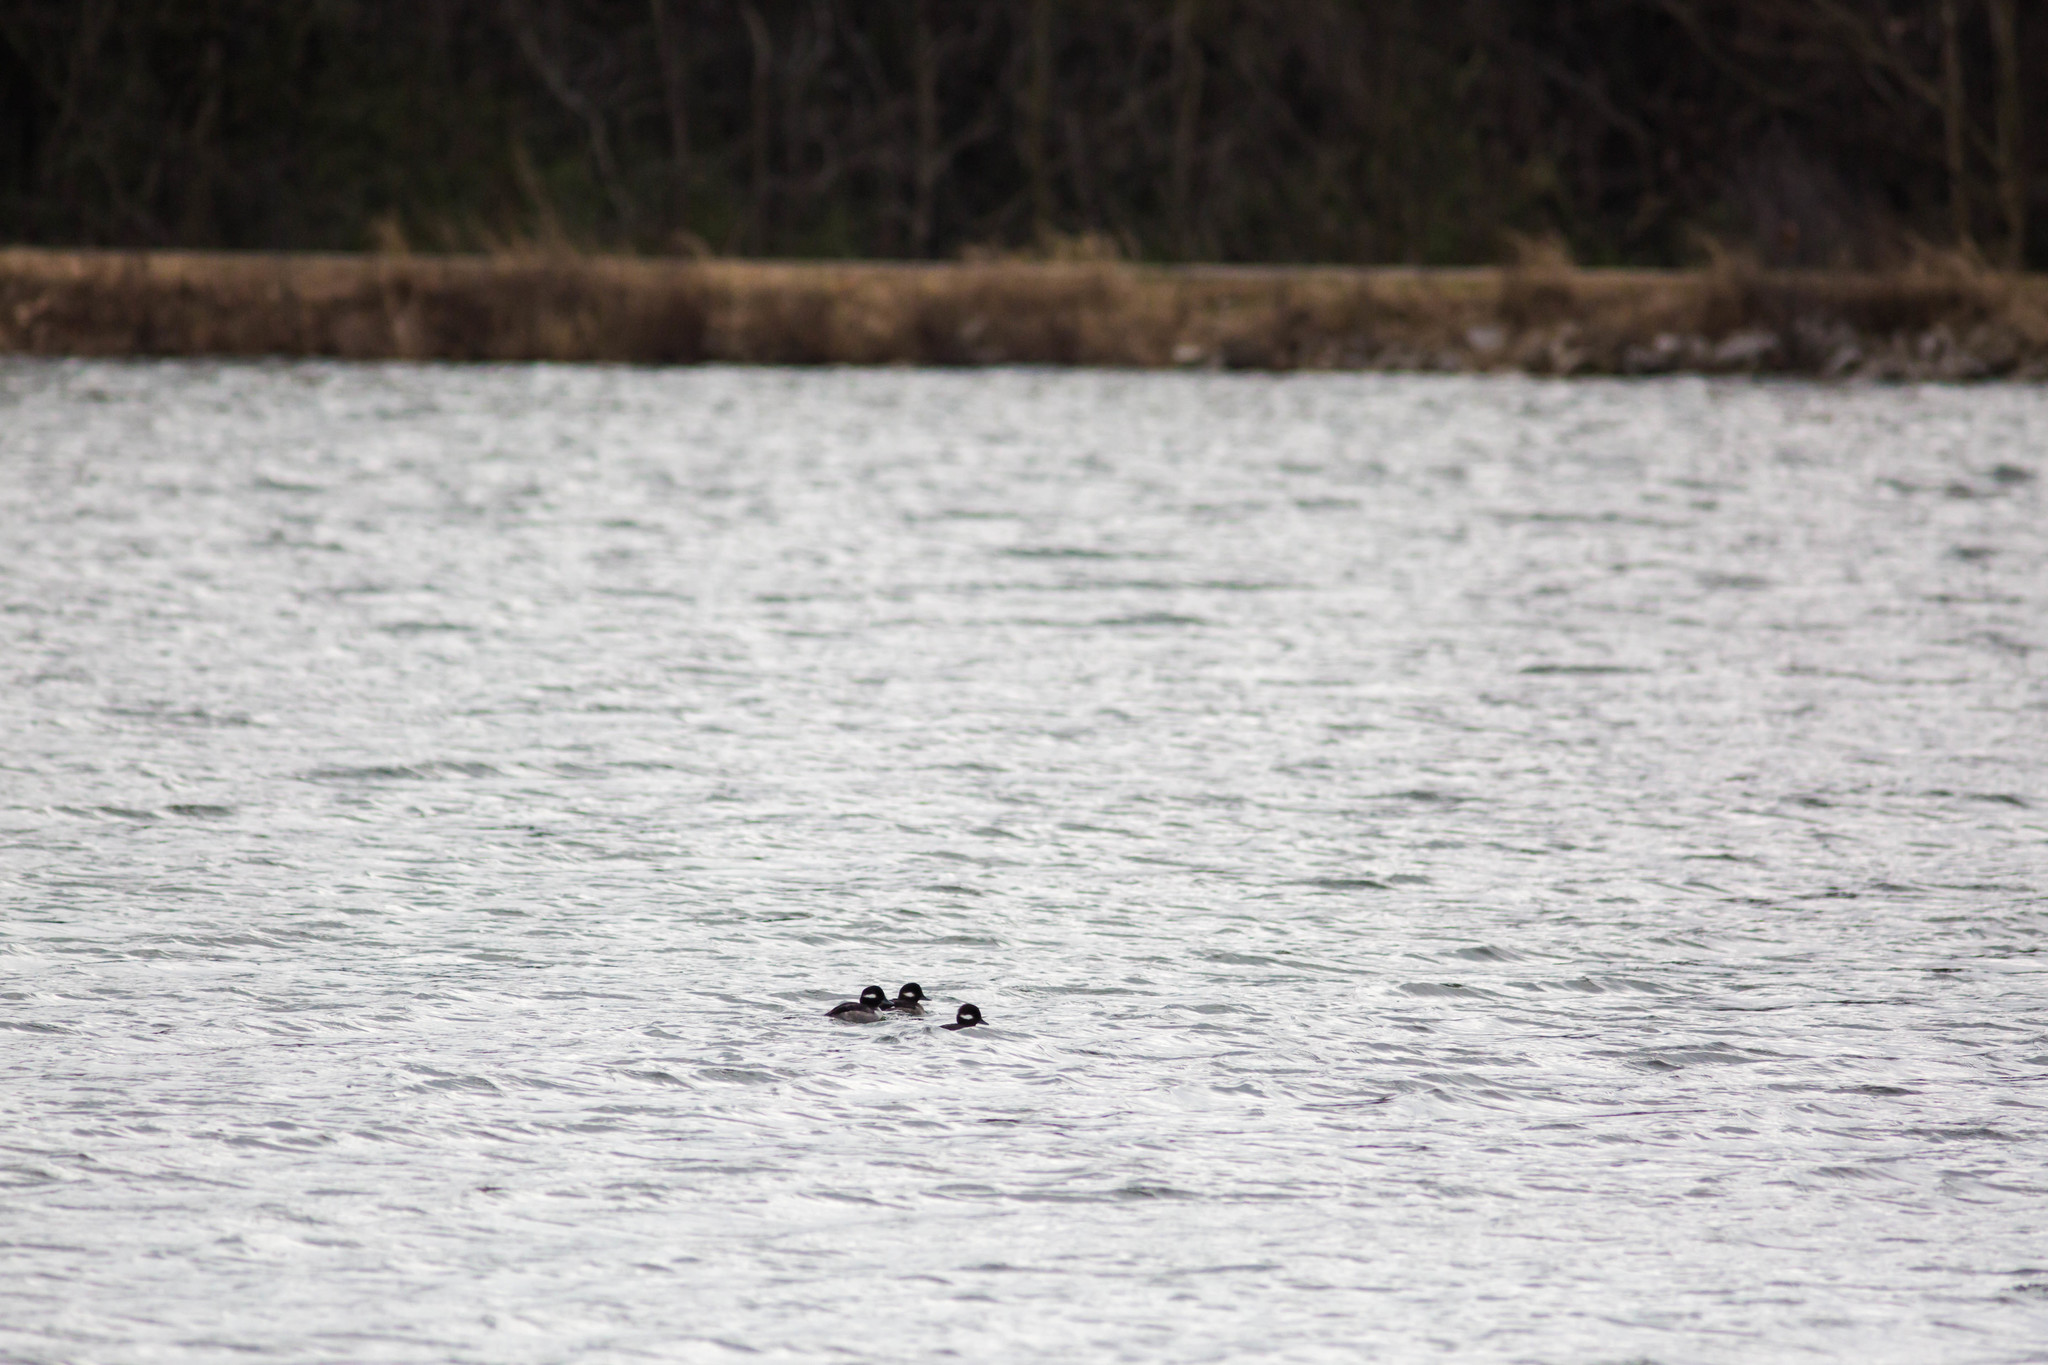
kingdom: Animalia
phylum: Chordata
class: Aves
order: Anseriformes
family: Anatidae
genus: Bucephala
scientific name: Bucephala albeola
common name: Bufflehead
